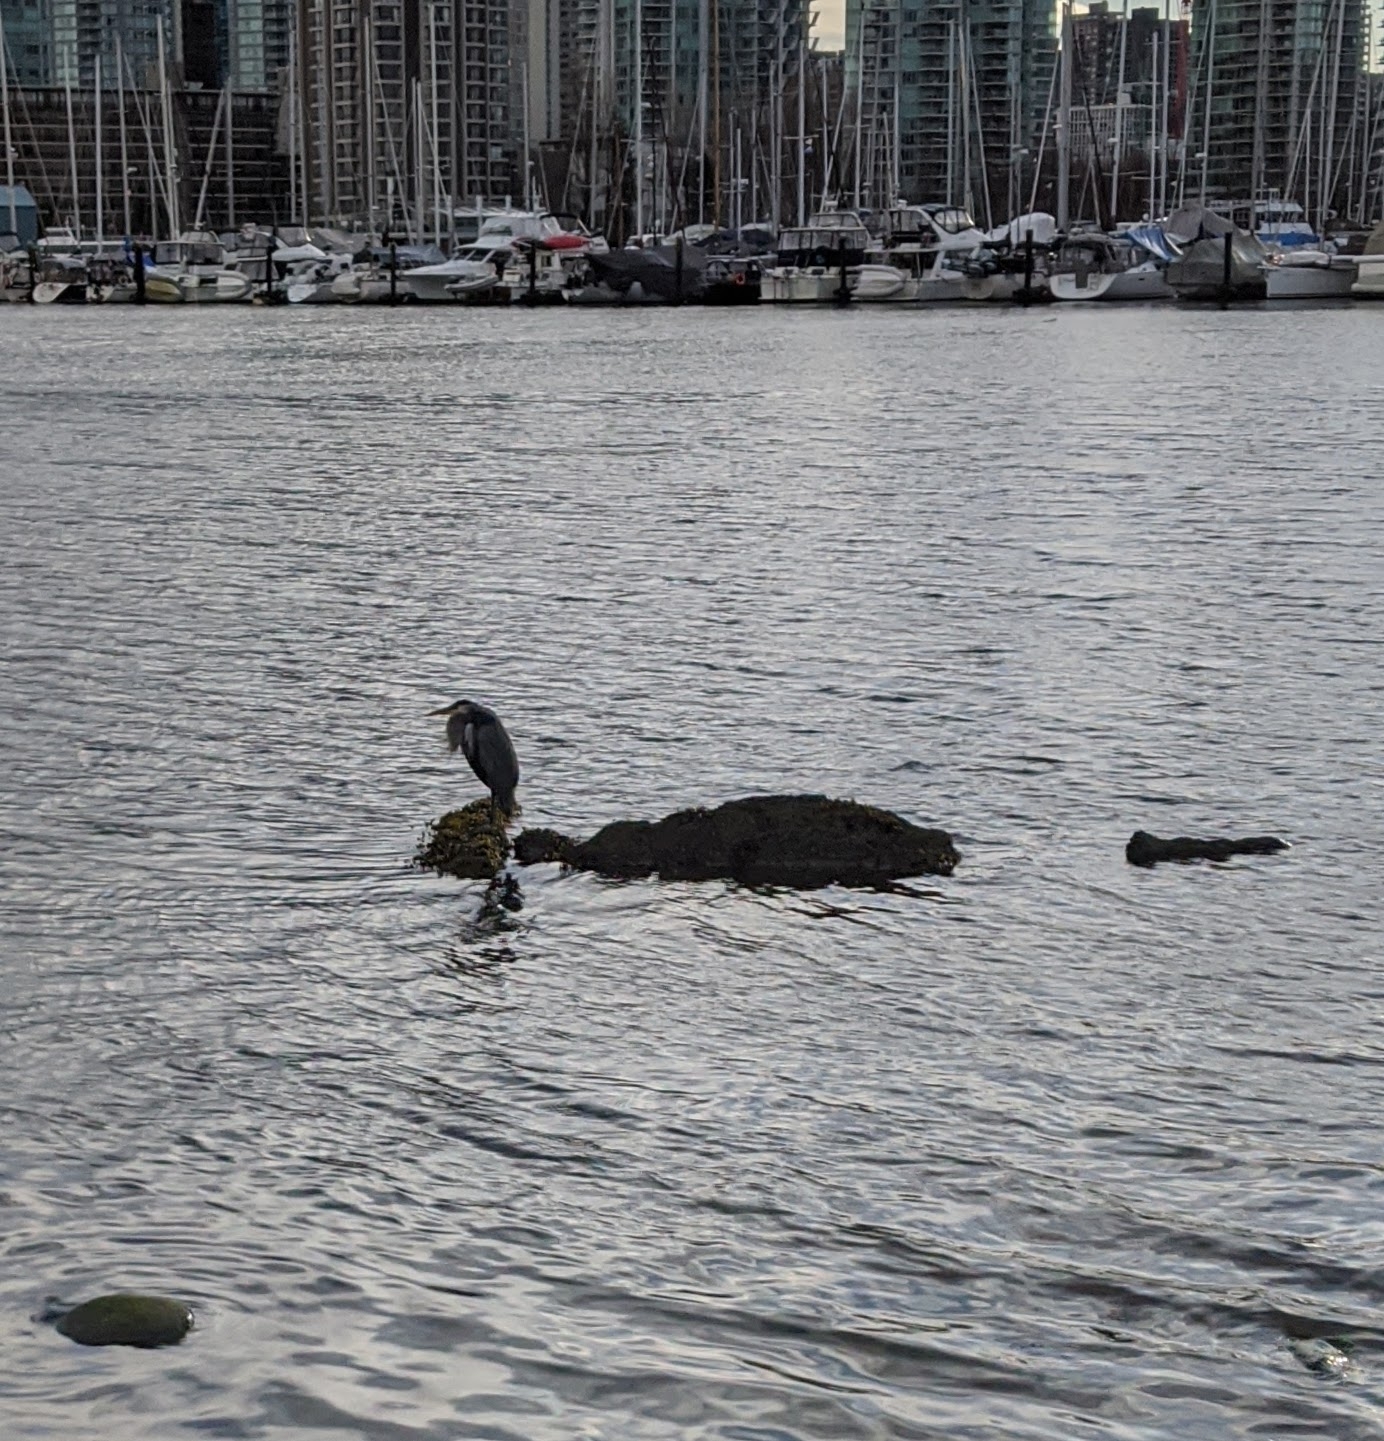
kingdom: Animalia
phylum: Chordata
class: Aves
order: Pelecaniformes
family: Ardeidae
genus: Ardea
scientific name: Ardea herodias
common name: Great blue heron
